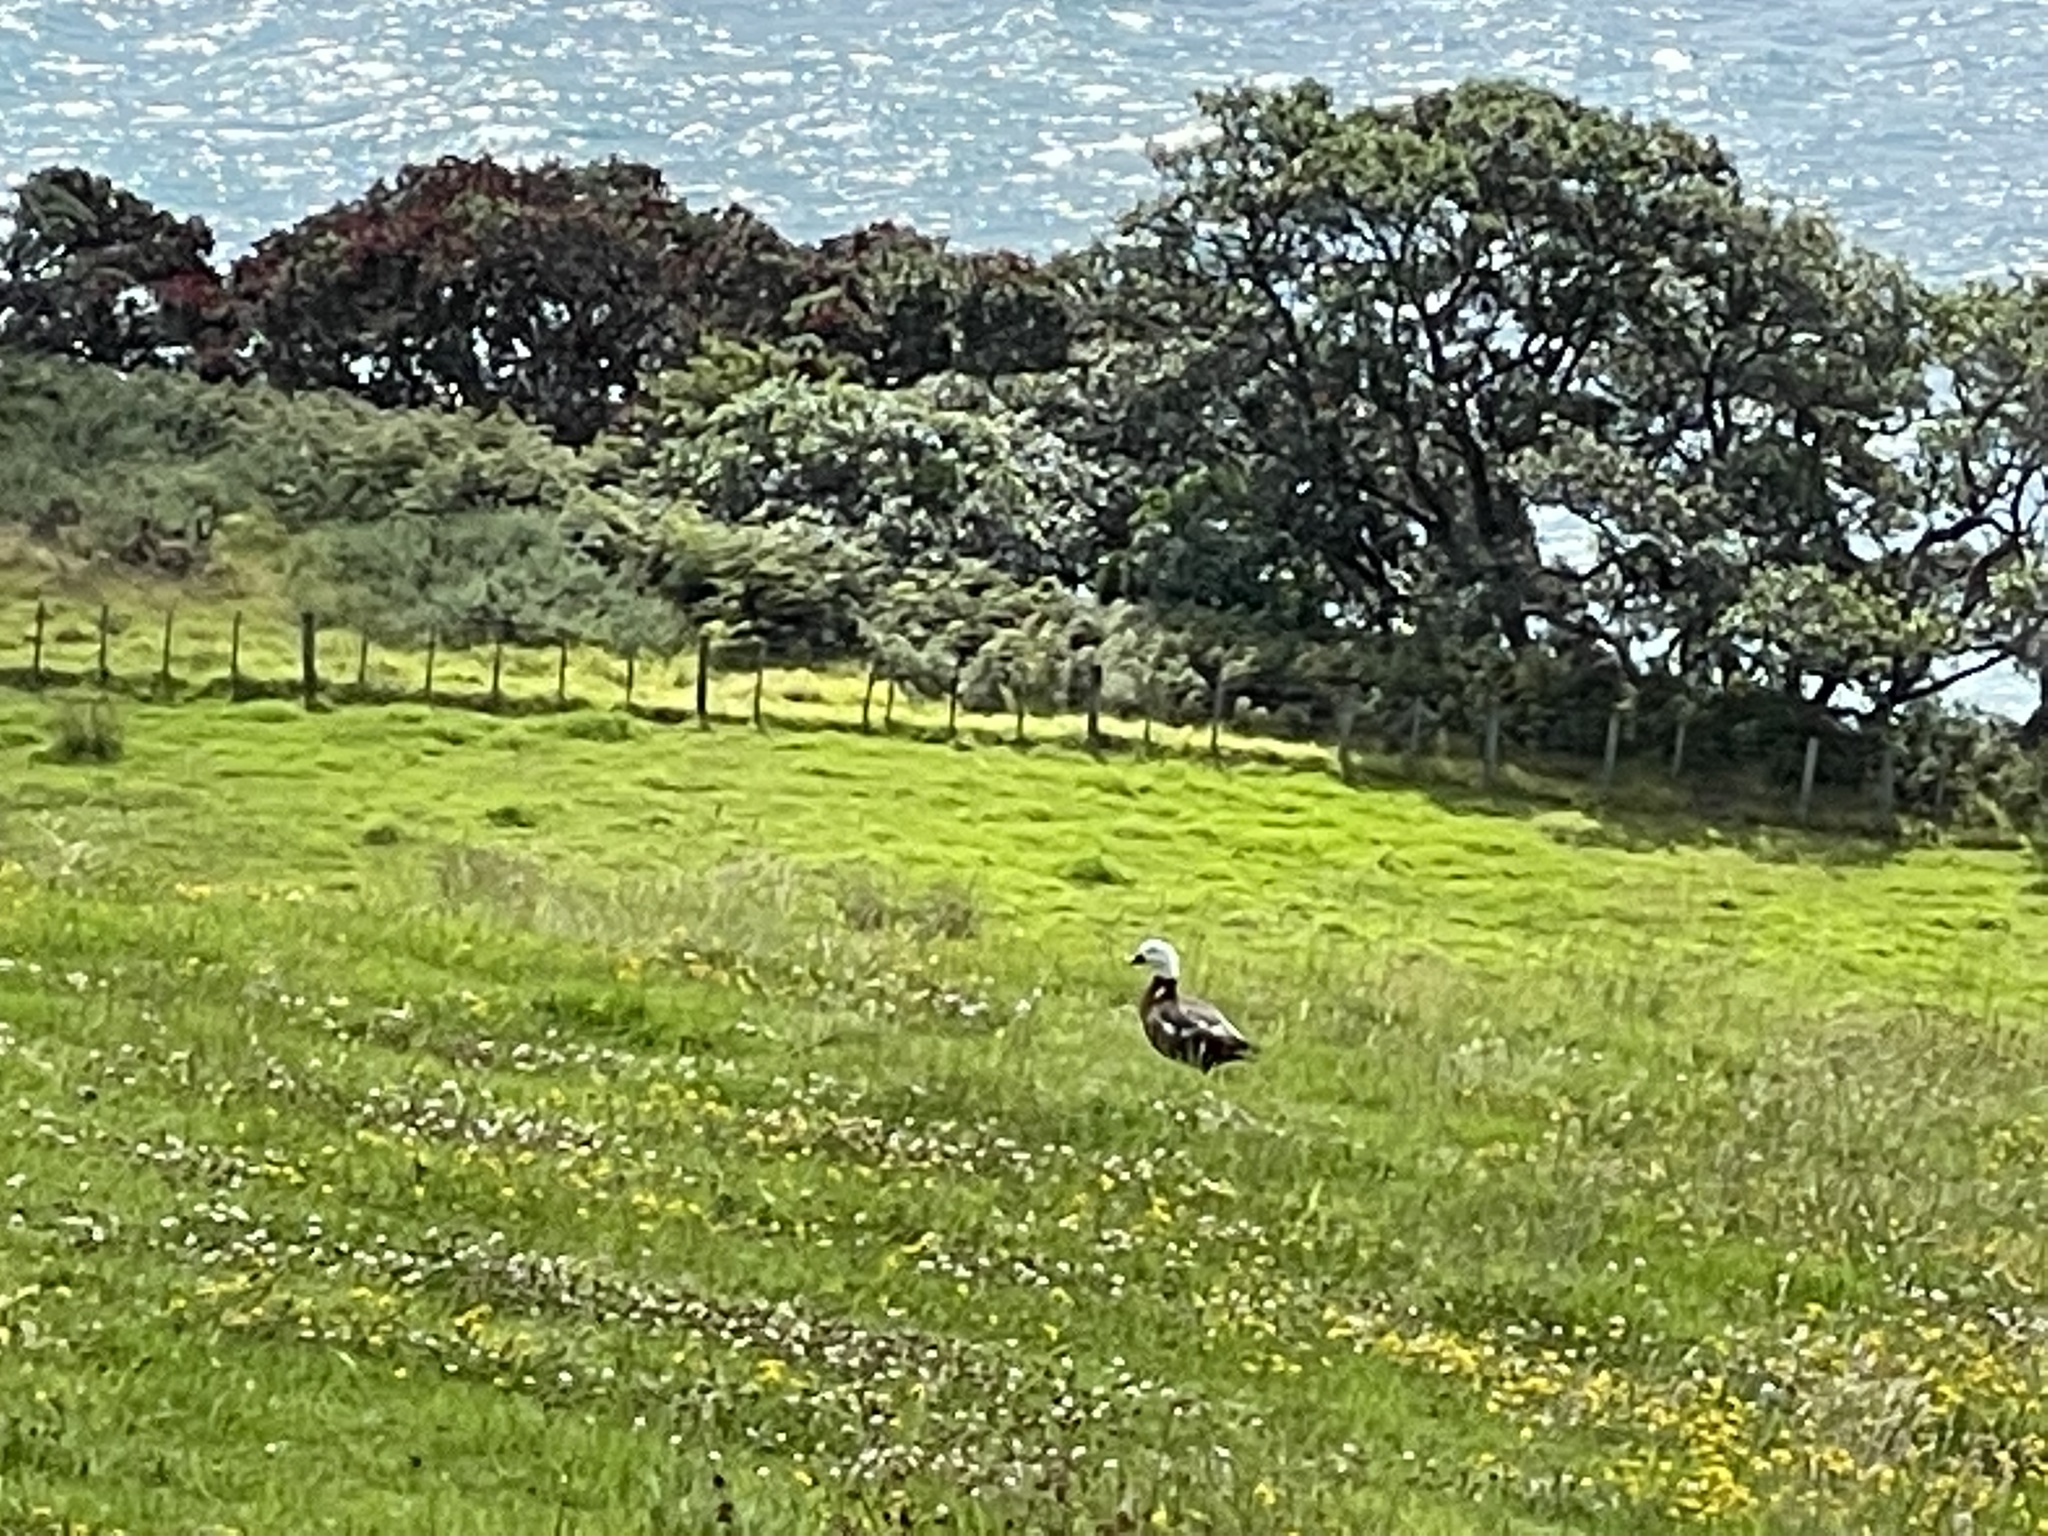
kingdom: Animalia
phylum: Chordata
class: Aves
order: Anseriformes
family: Anatidae
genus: Tadorna
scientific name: Tadorna variegata
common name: Paradise shelduck
